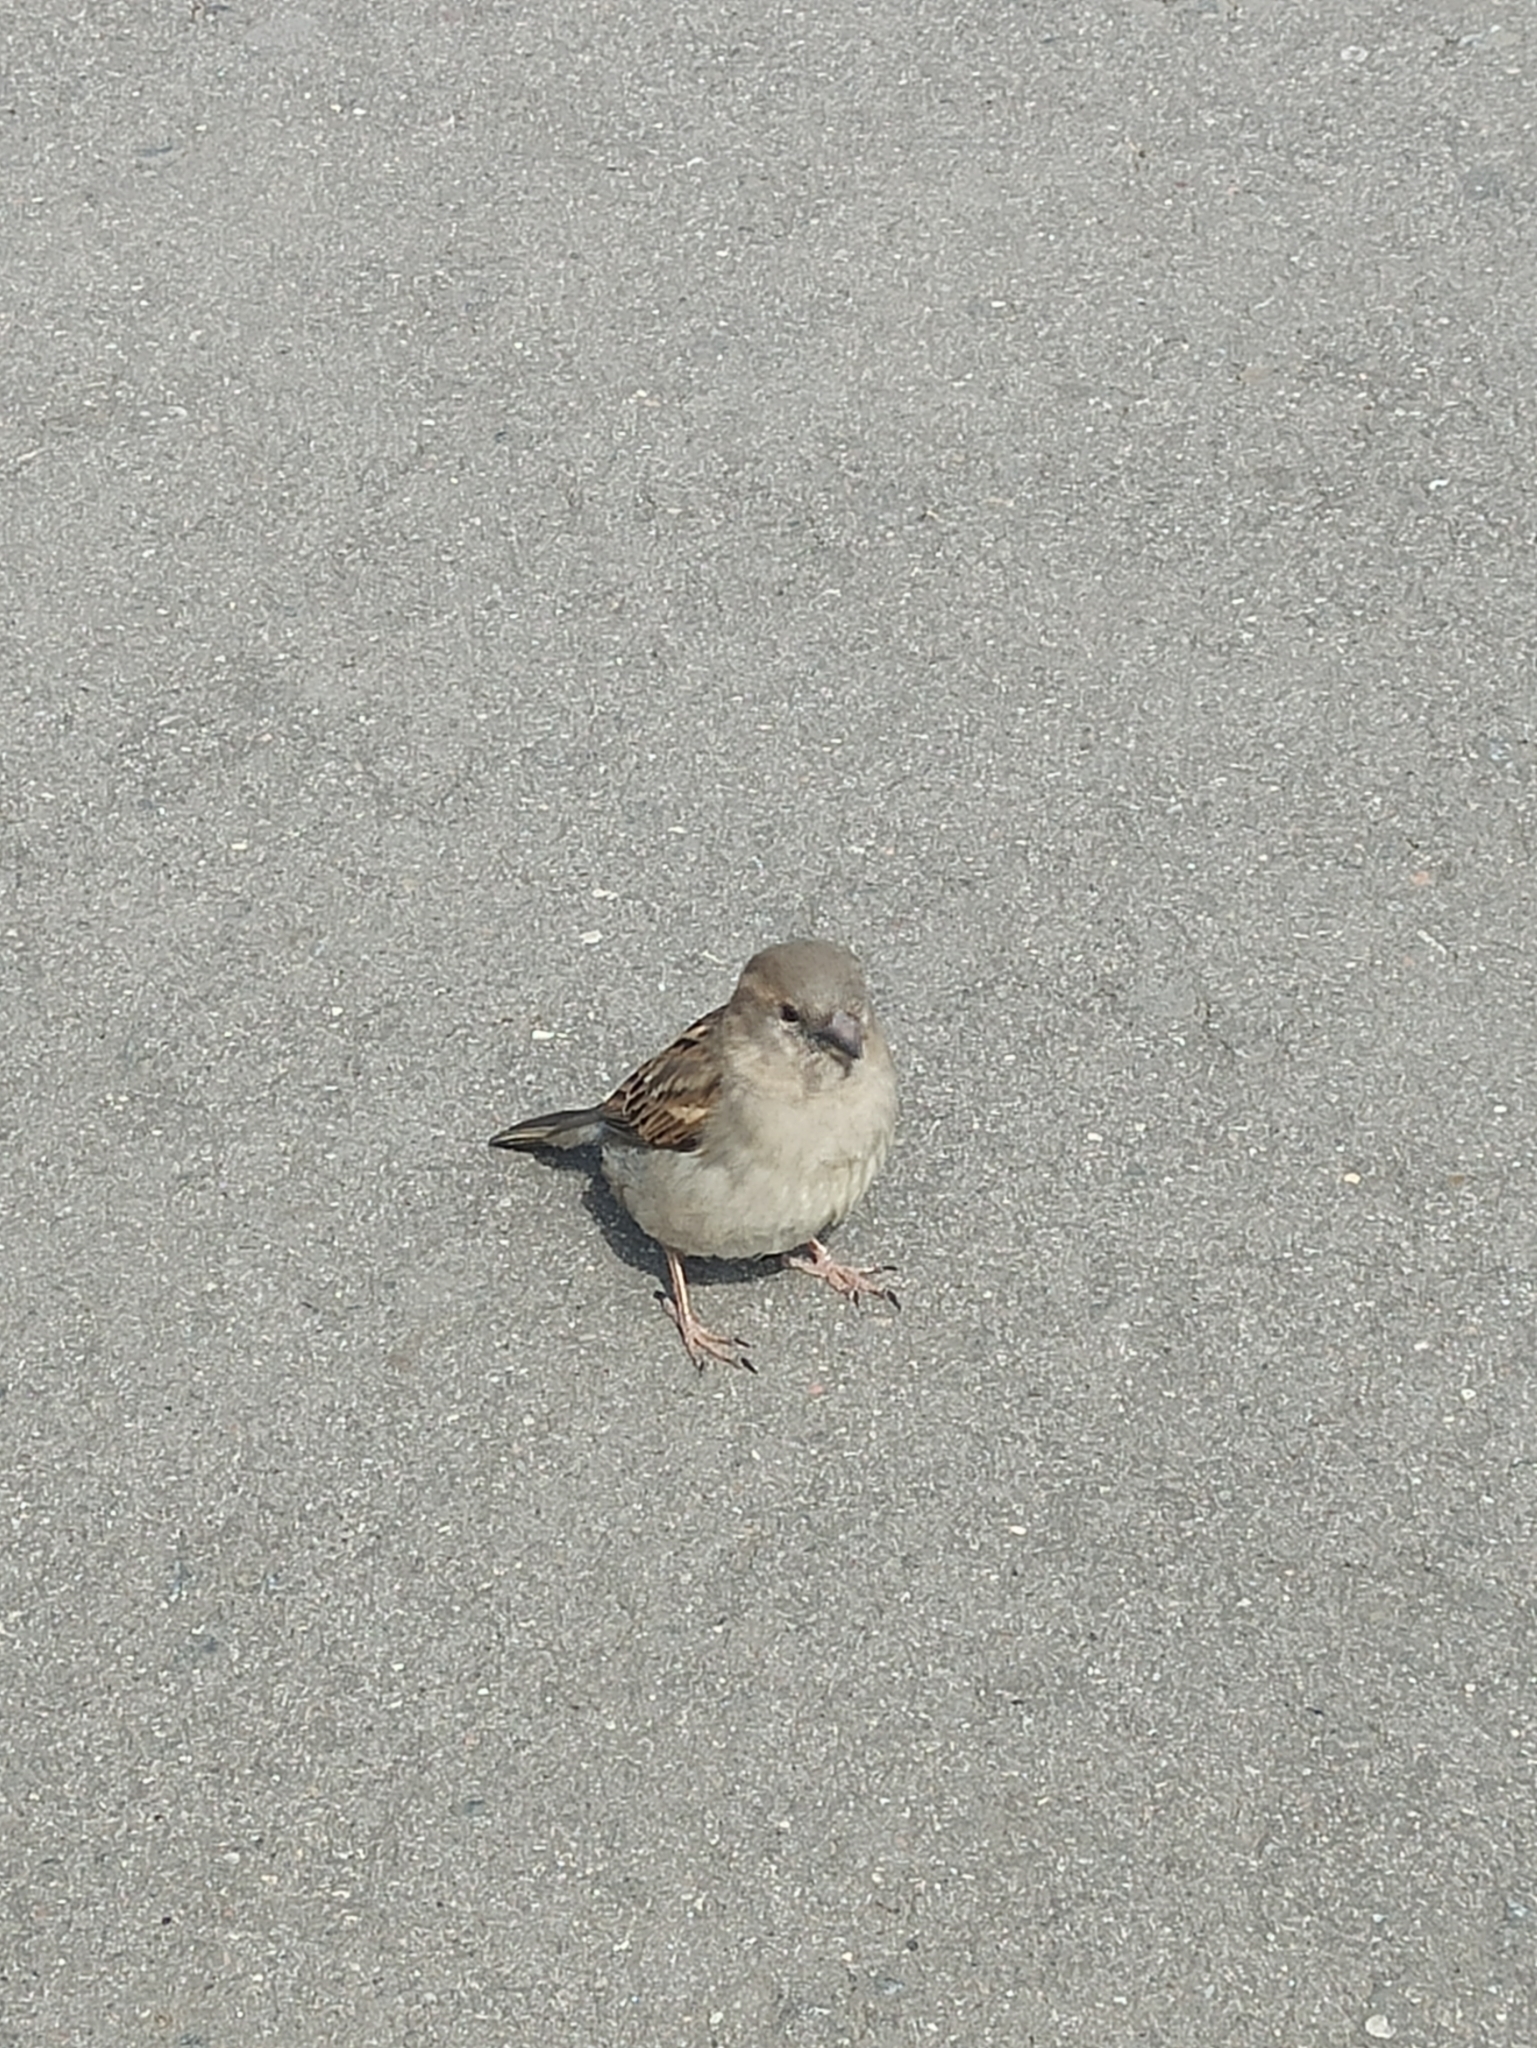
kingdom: Animalia
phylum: Chordata
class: Aves
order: Passeriformes
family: Passeridae
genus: Passer
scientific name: Passer domesticus
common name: House sparrow
